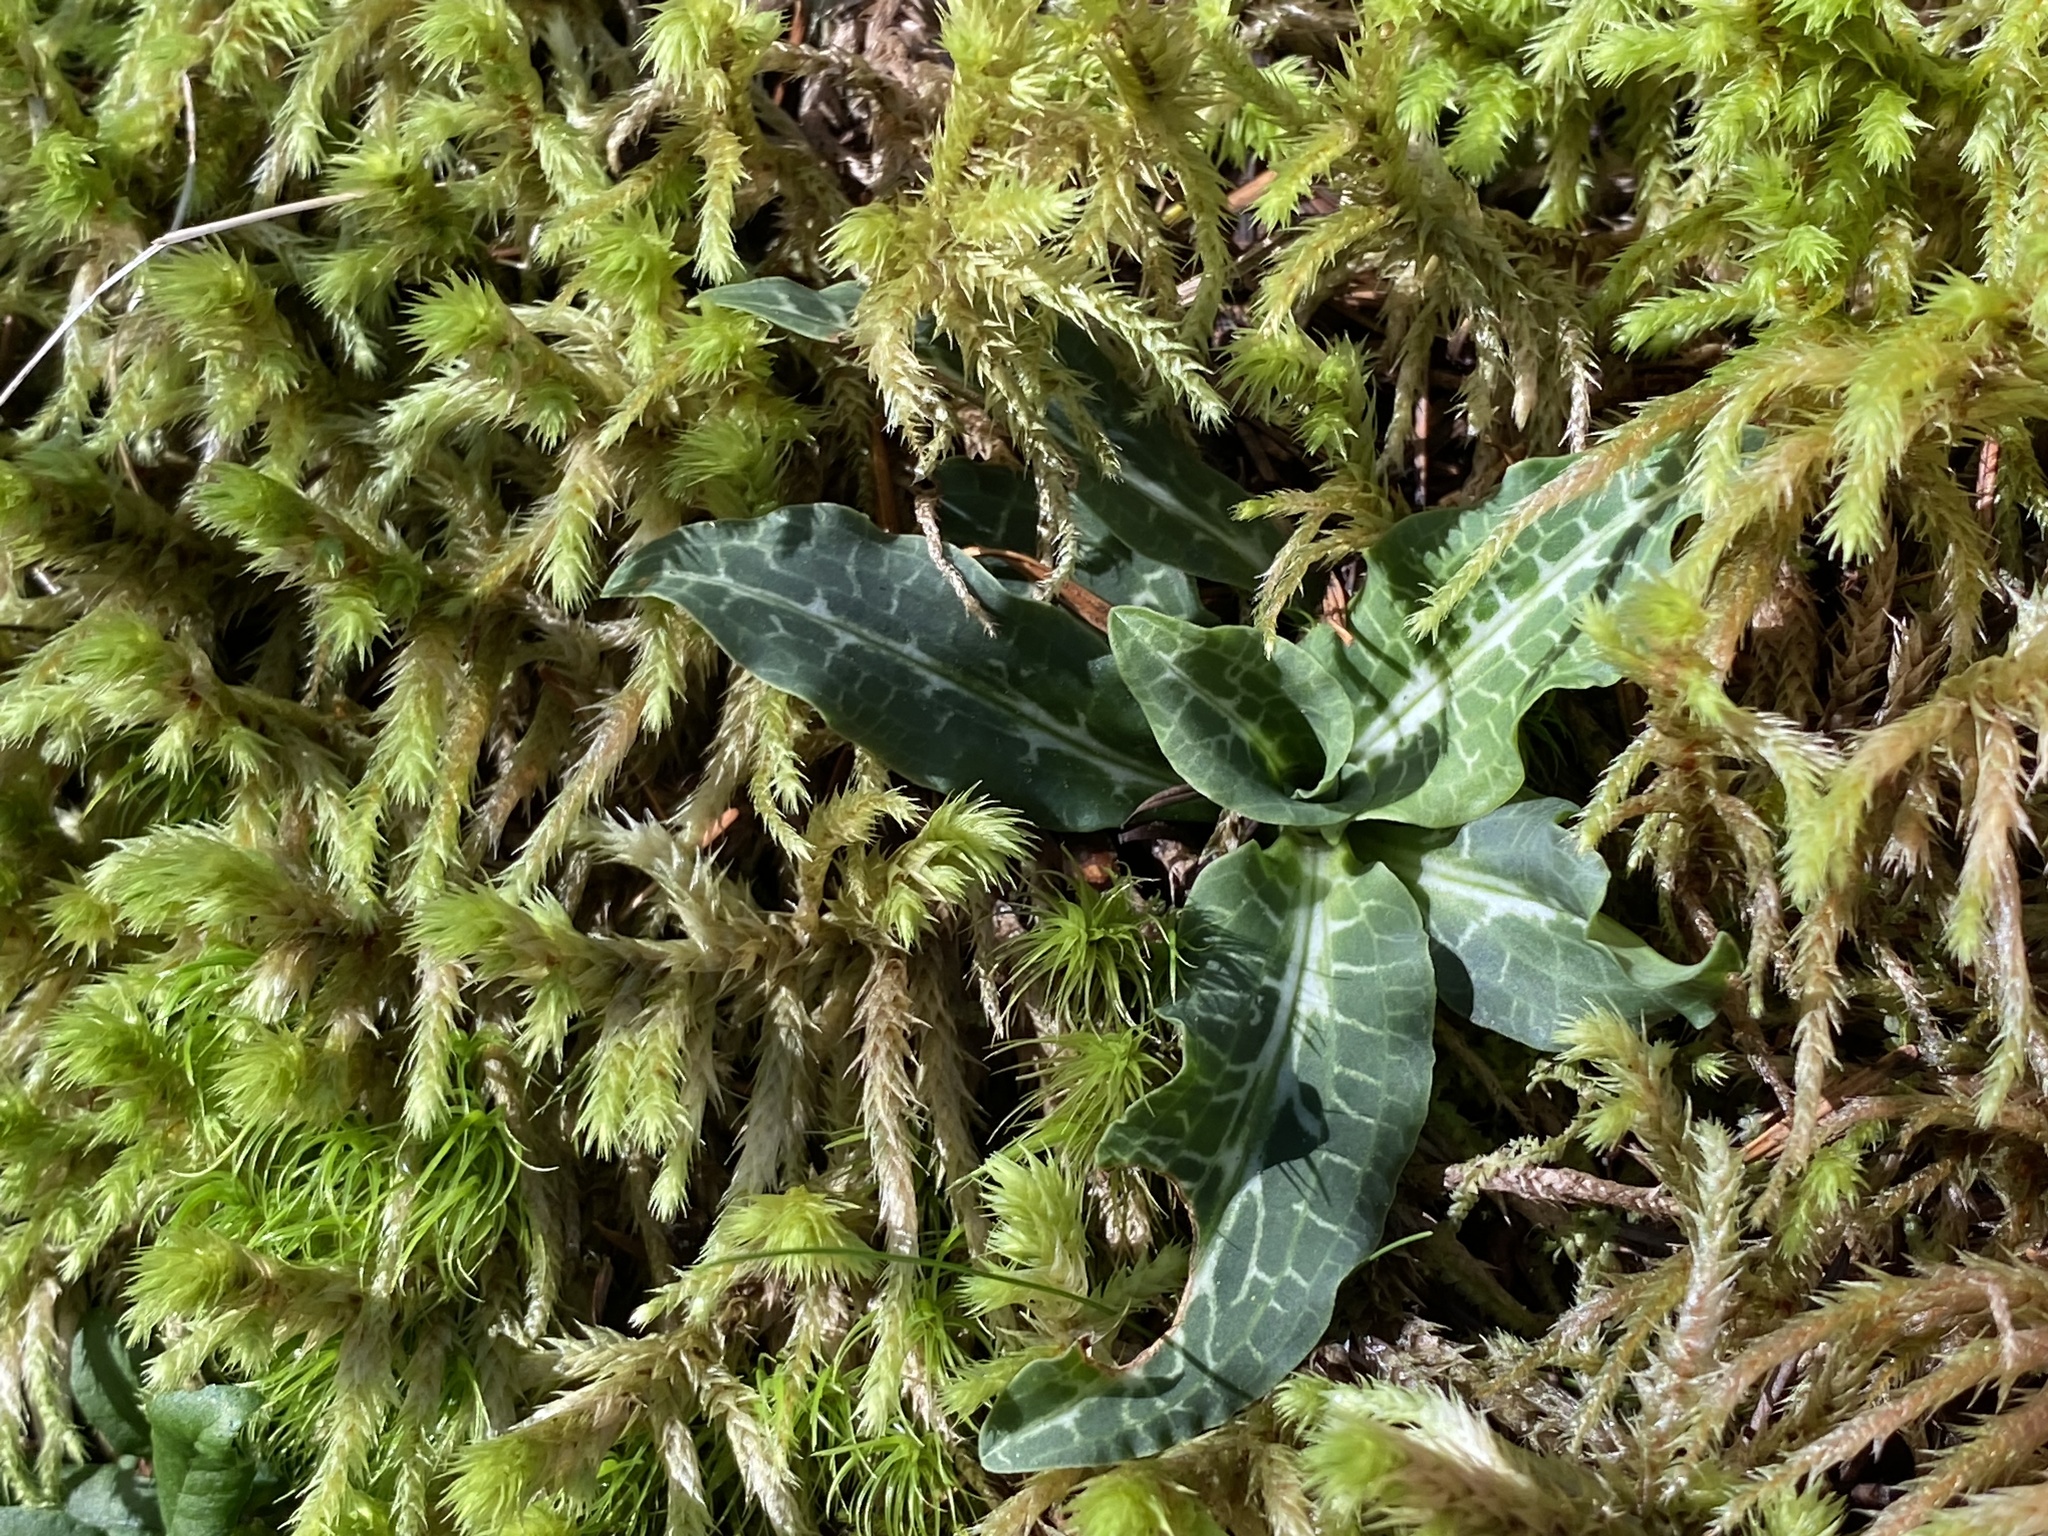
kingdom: Plantae
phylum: Tracheophyta
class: Liliopsida
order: Asparagales
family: Orchidaceae
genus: Goodyera
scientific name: Goodyera oblongifolia
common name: Giant rattlesnake-plantain
